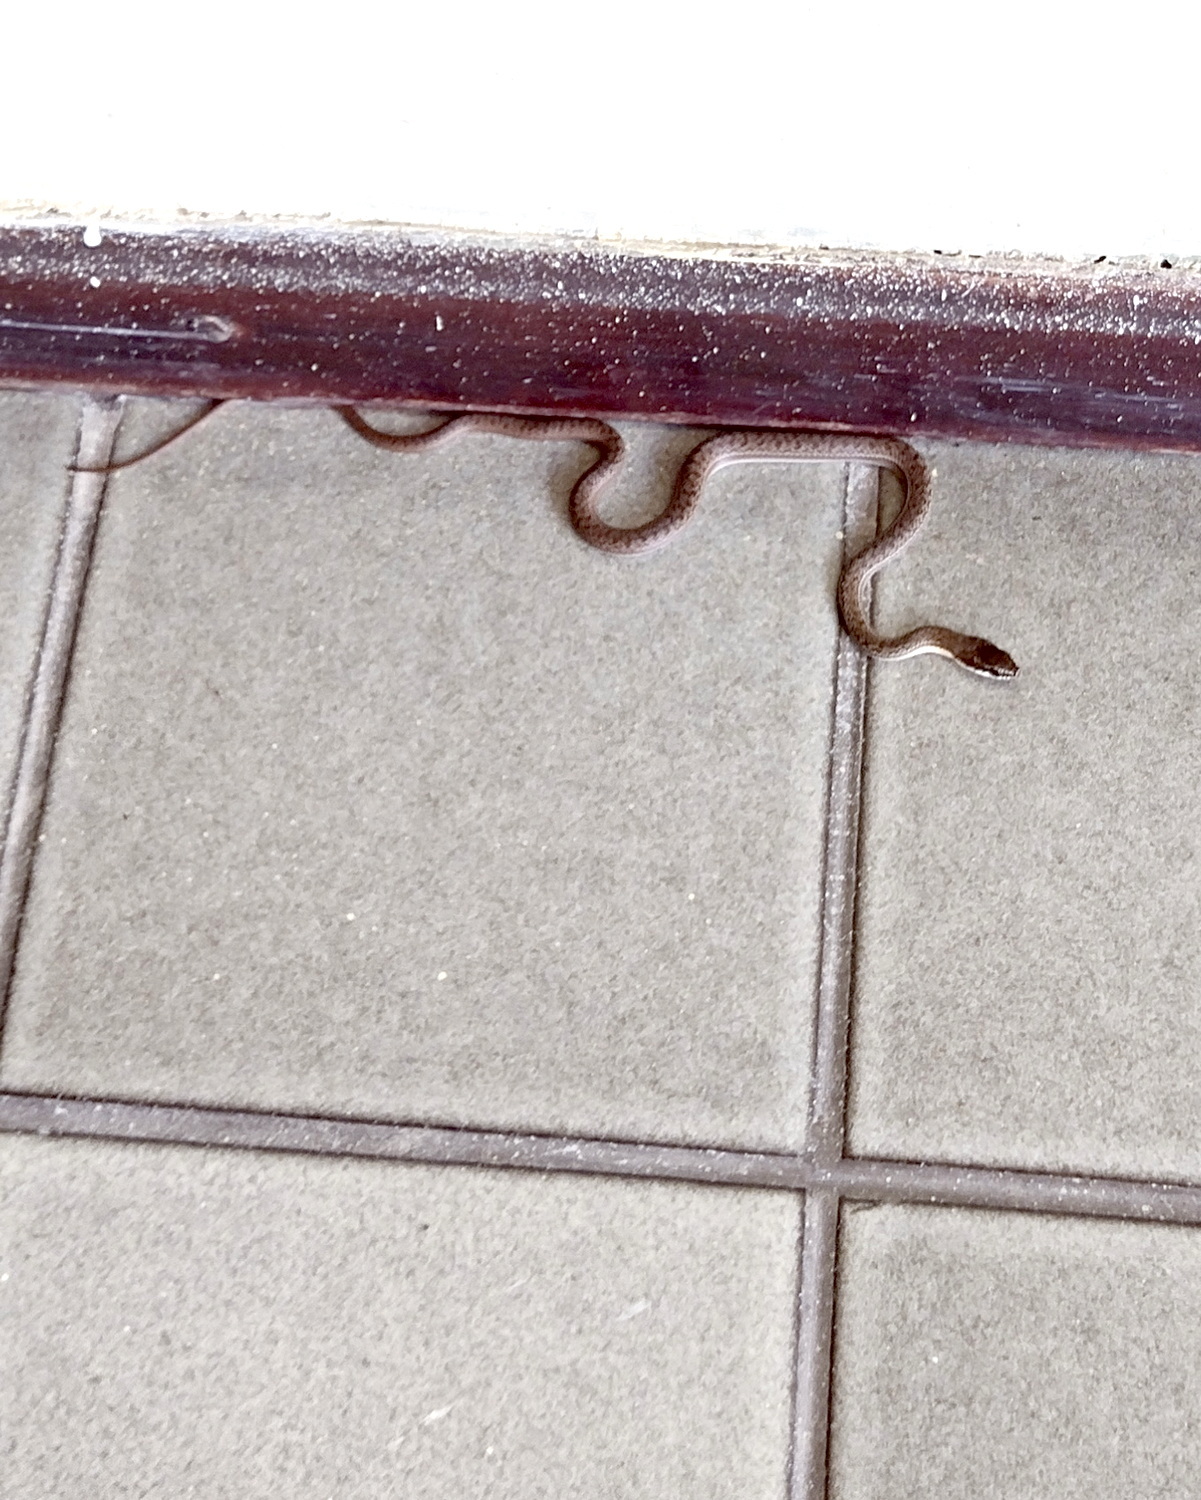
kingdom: Animalia
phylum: Chordata
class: Squamata
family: Colubridae
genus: Philodryas
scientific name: Philodryas nattereri
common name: Paraguay green racer
